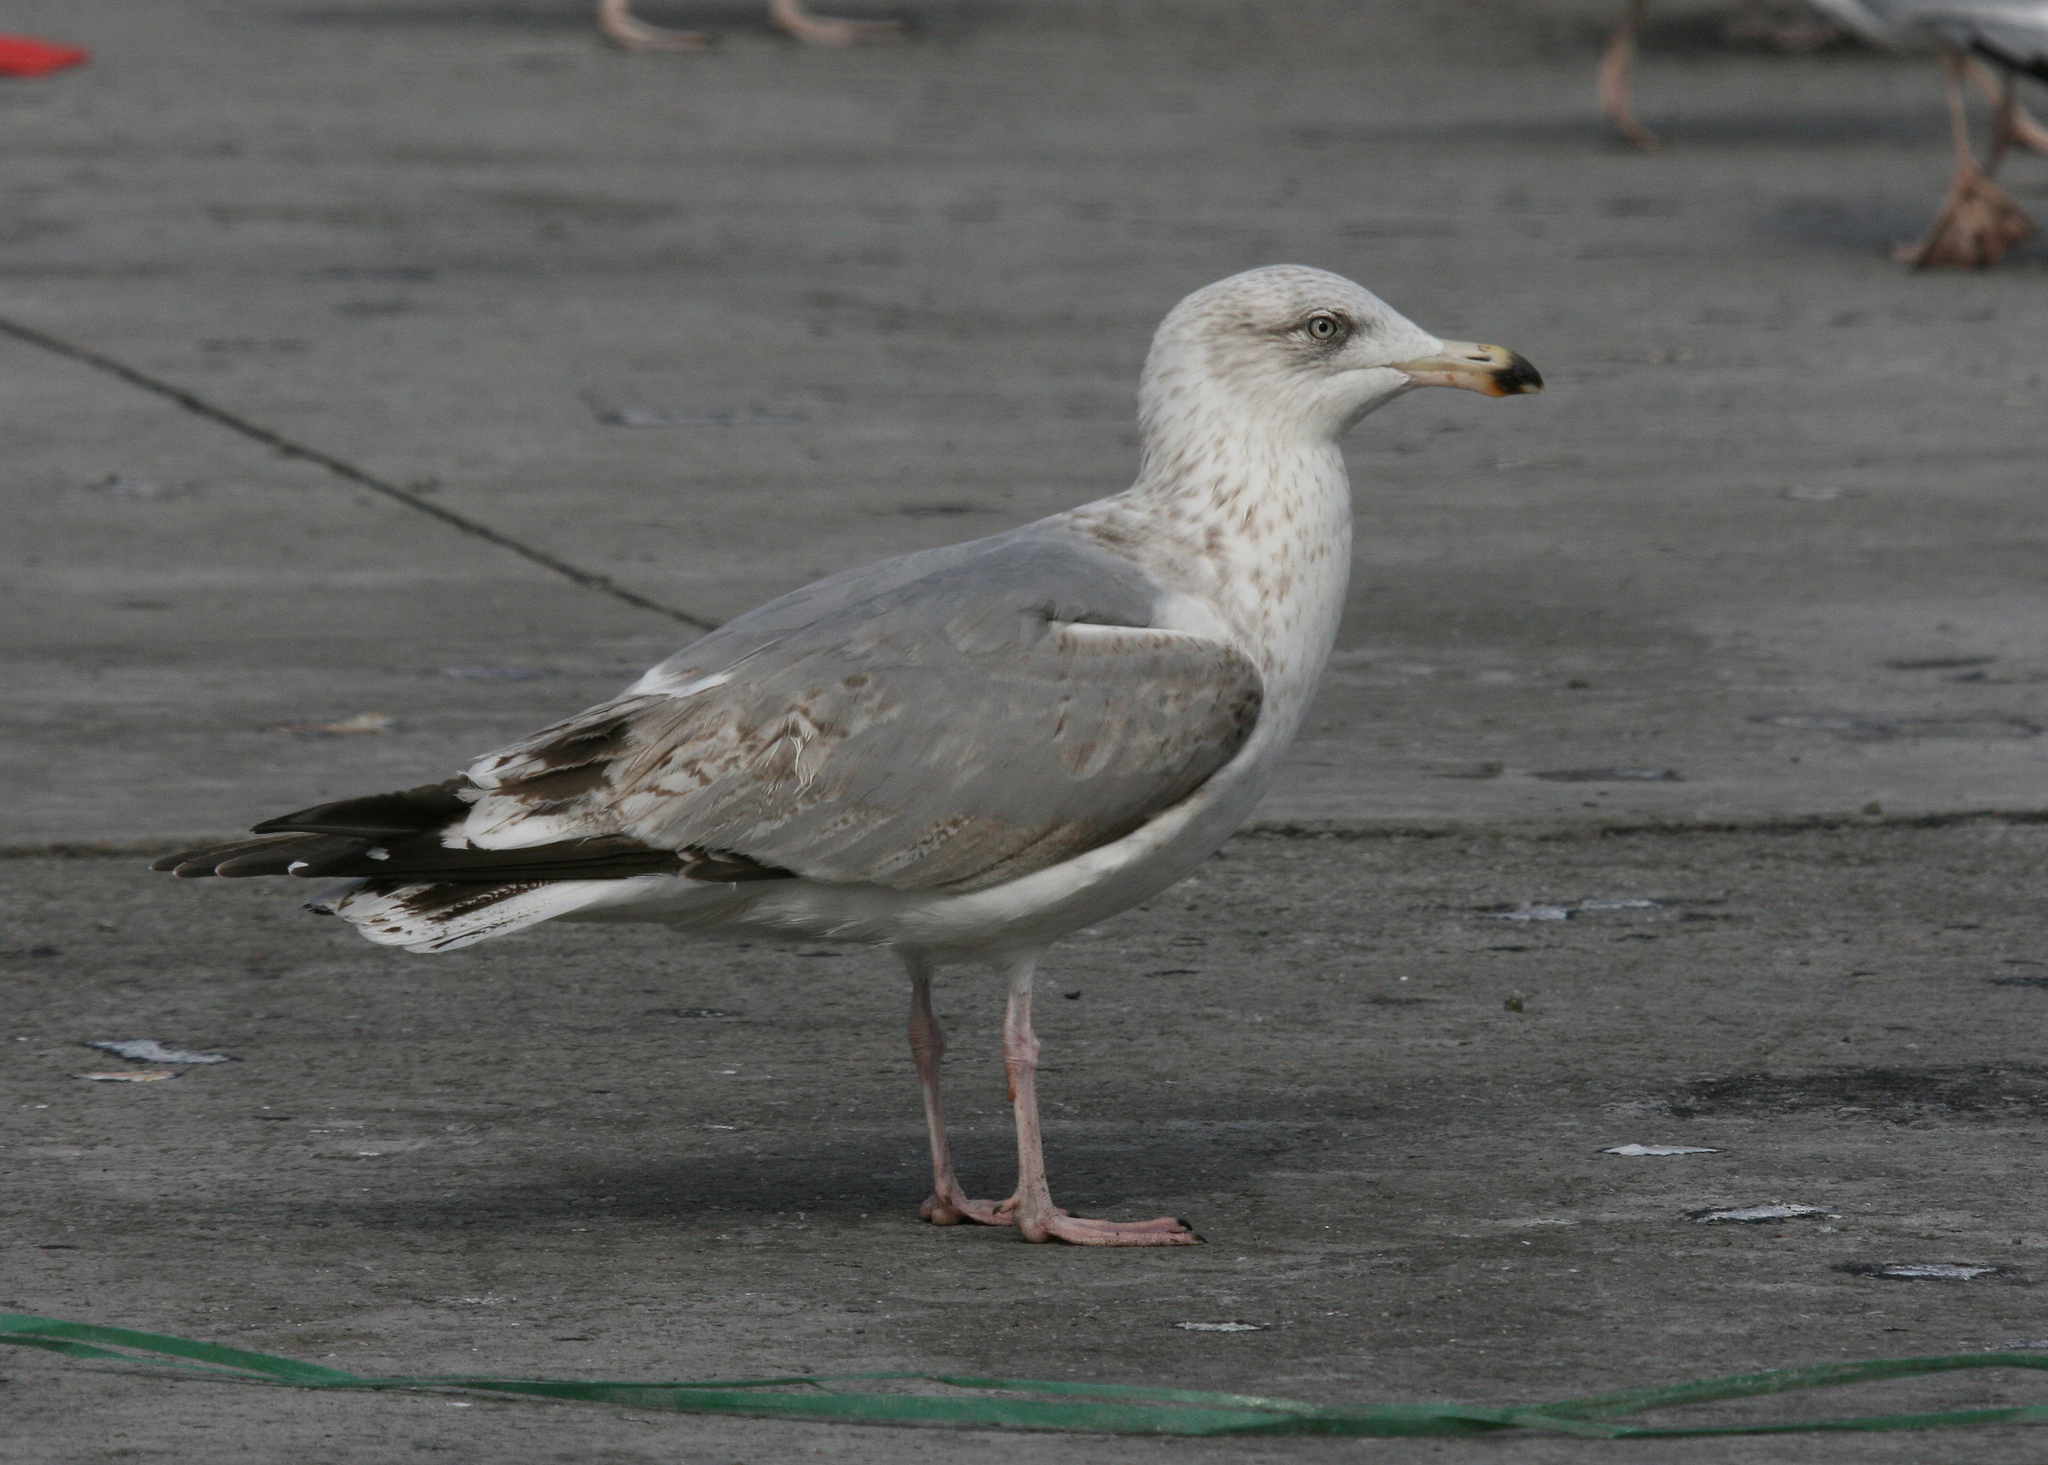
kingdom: Animalia
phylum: Chordata
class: Aves
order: Charadriiformes
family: Laridae
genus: Larus
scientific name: Larus argentatus
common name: Herring gull
